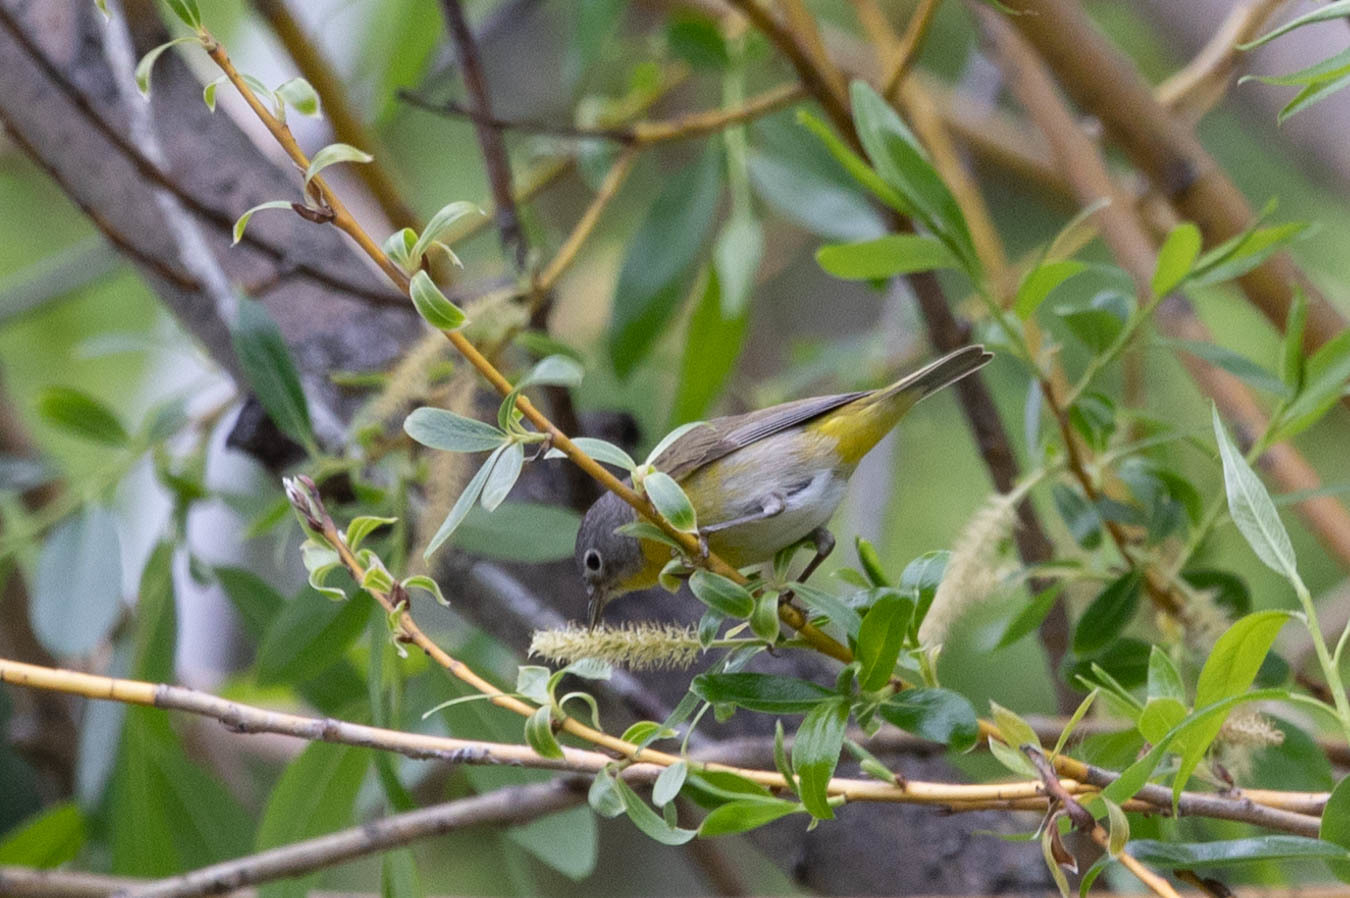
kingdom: Animalia
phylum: Chordata
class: Aves
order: Passeriformes
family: Parulidae
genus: Leiothlypis
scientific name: Leiothlypis ruficapilla
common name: Nashville warbler
